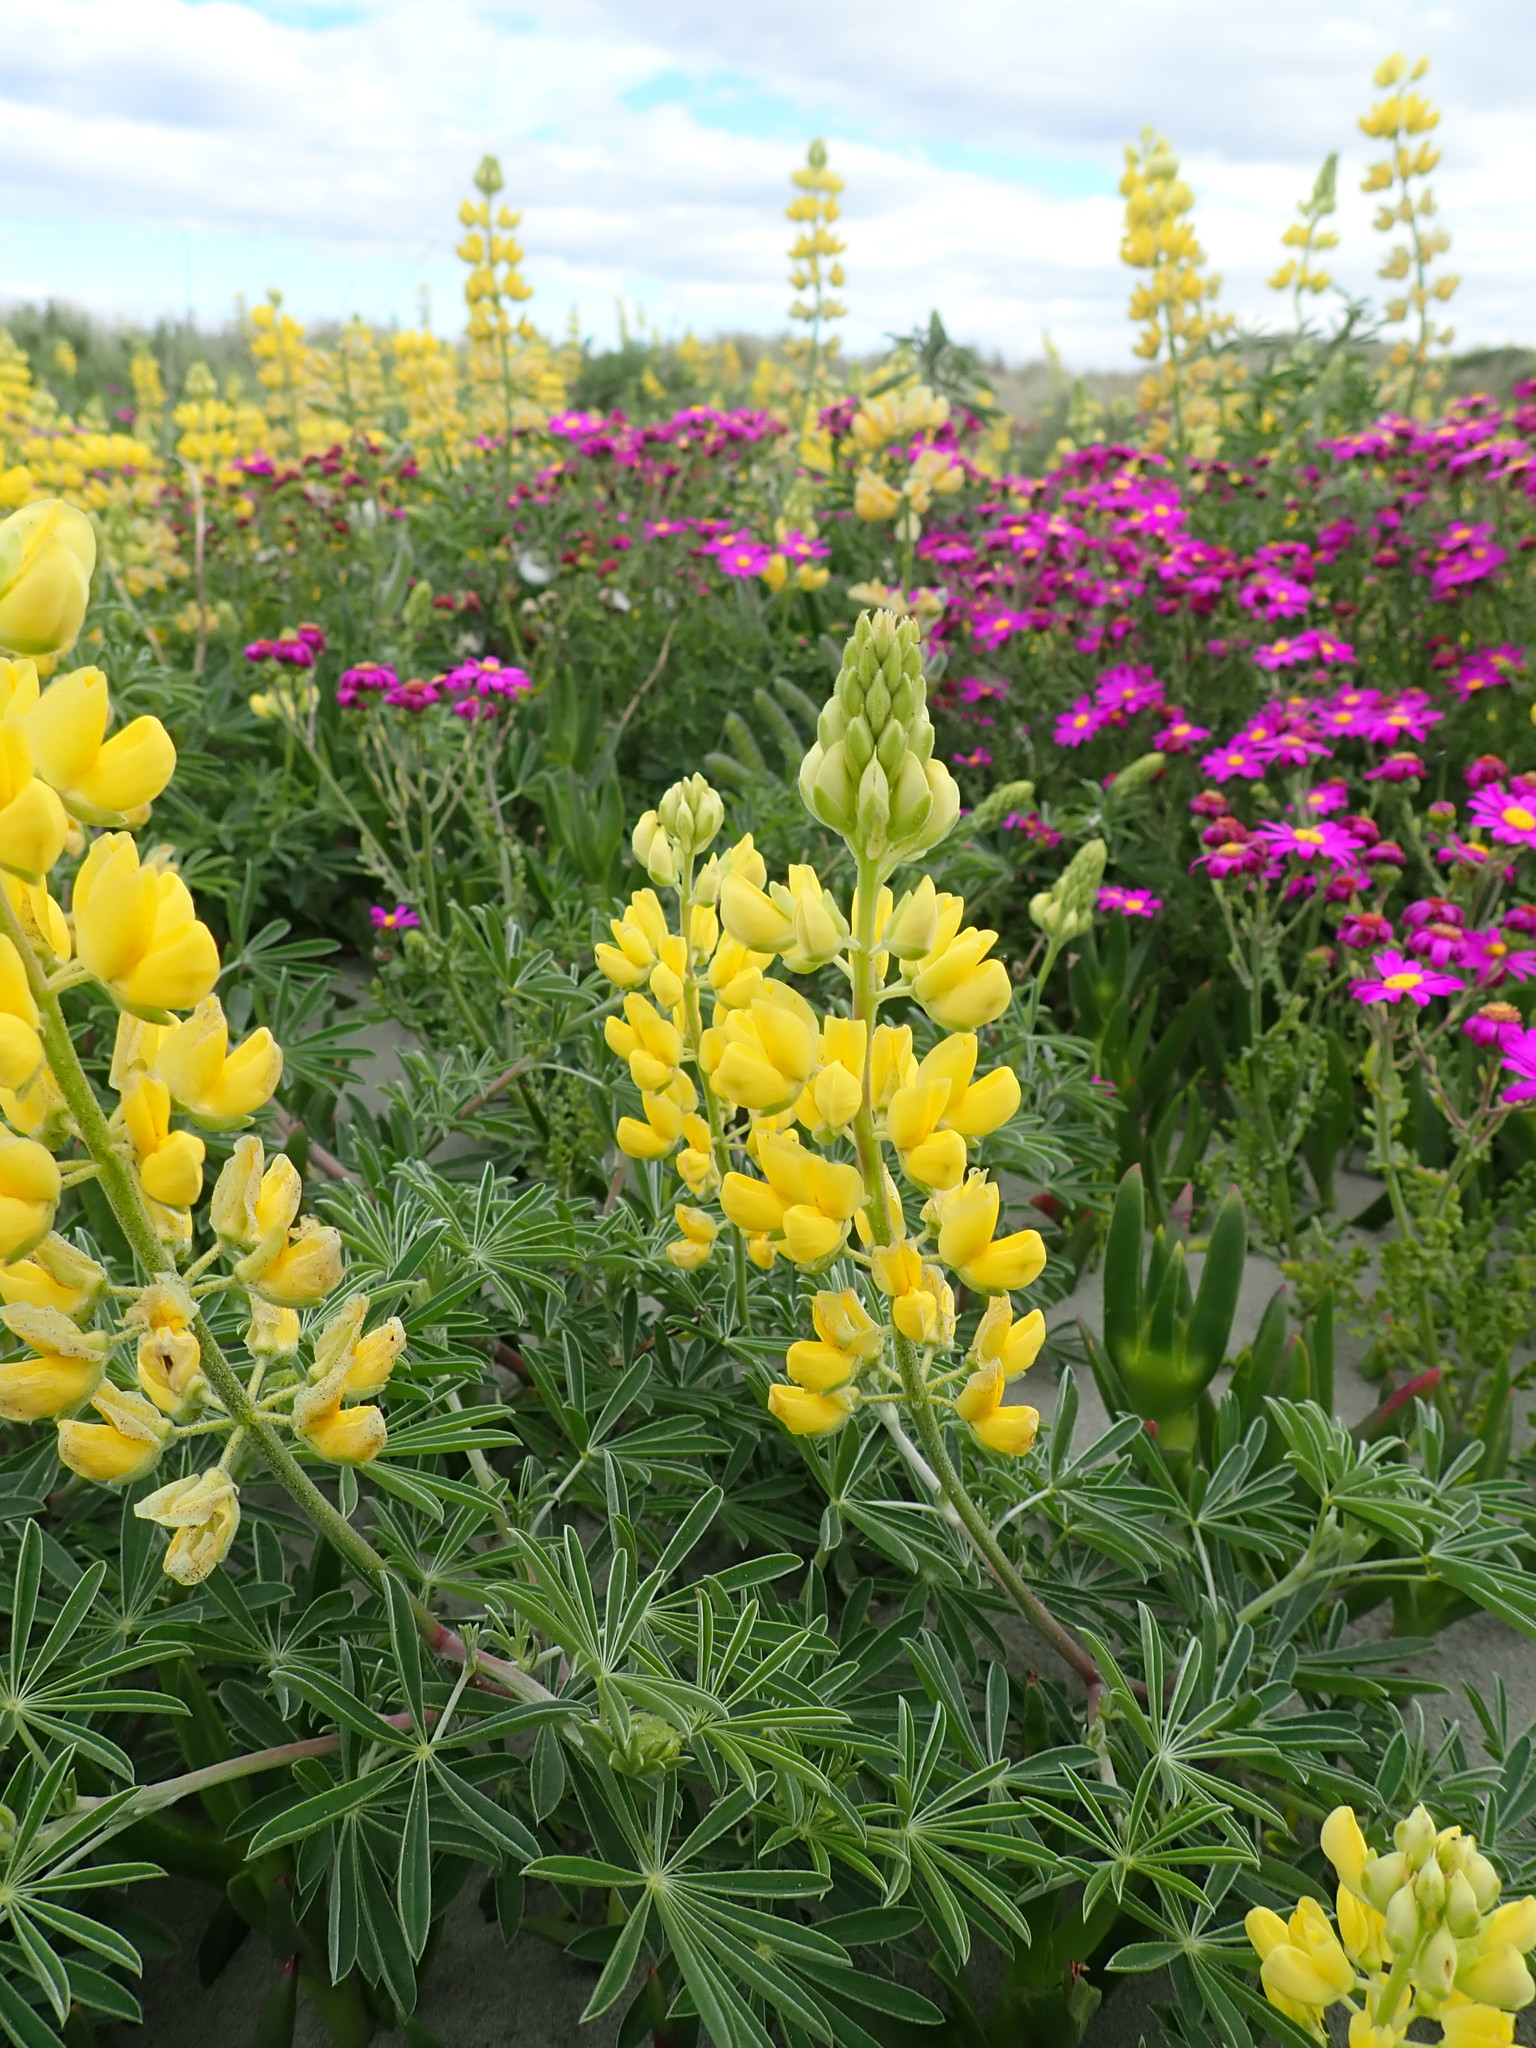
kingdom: Plantae
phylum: Tracheophyta
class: Magnoliopsida
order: Fabales
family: Fabaceae
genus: Lupinus
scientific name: Lupinus arboreus
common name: Yellow bush lupine
